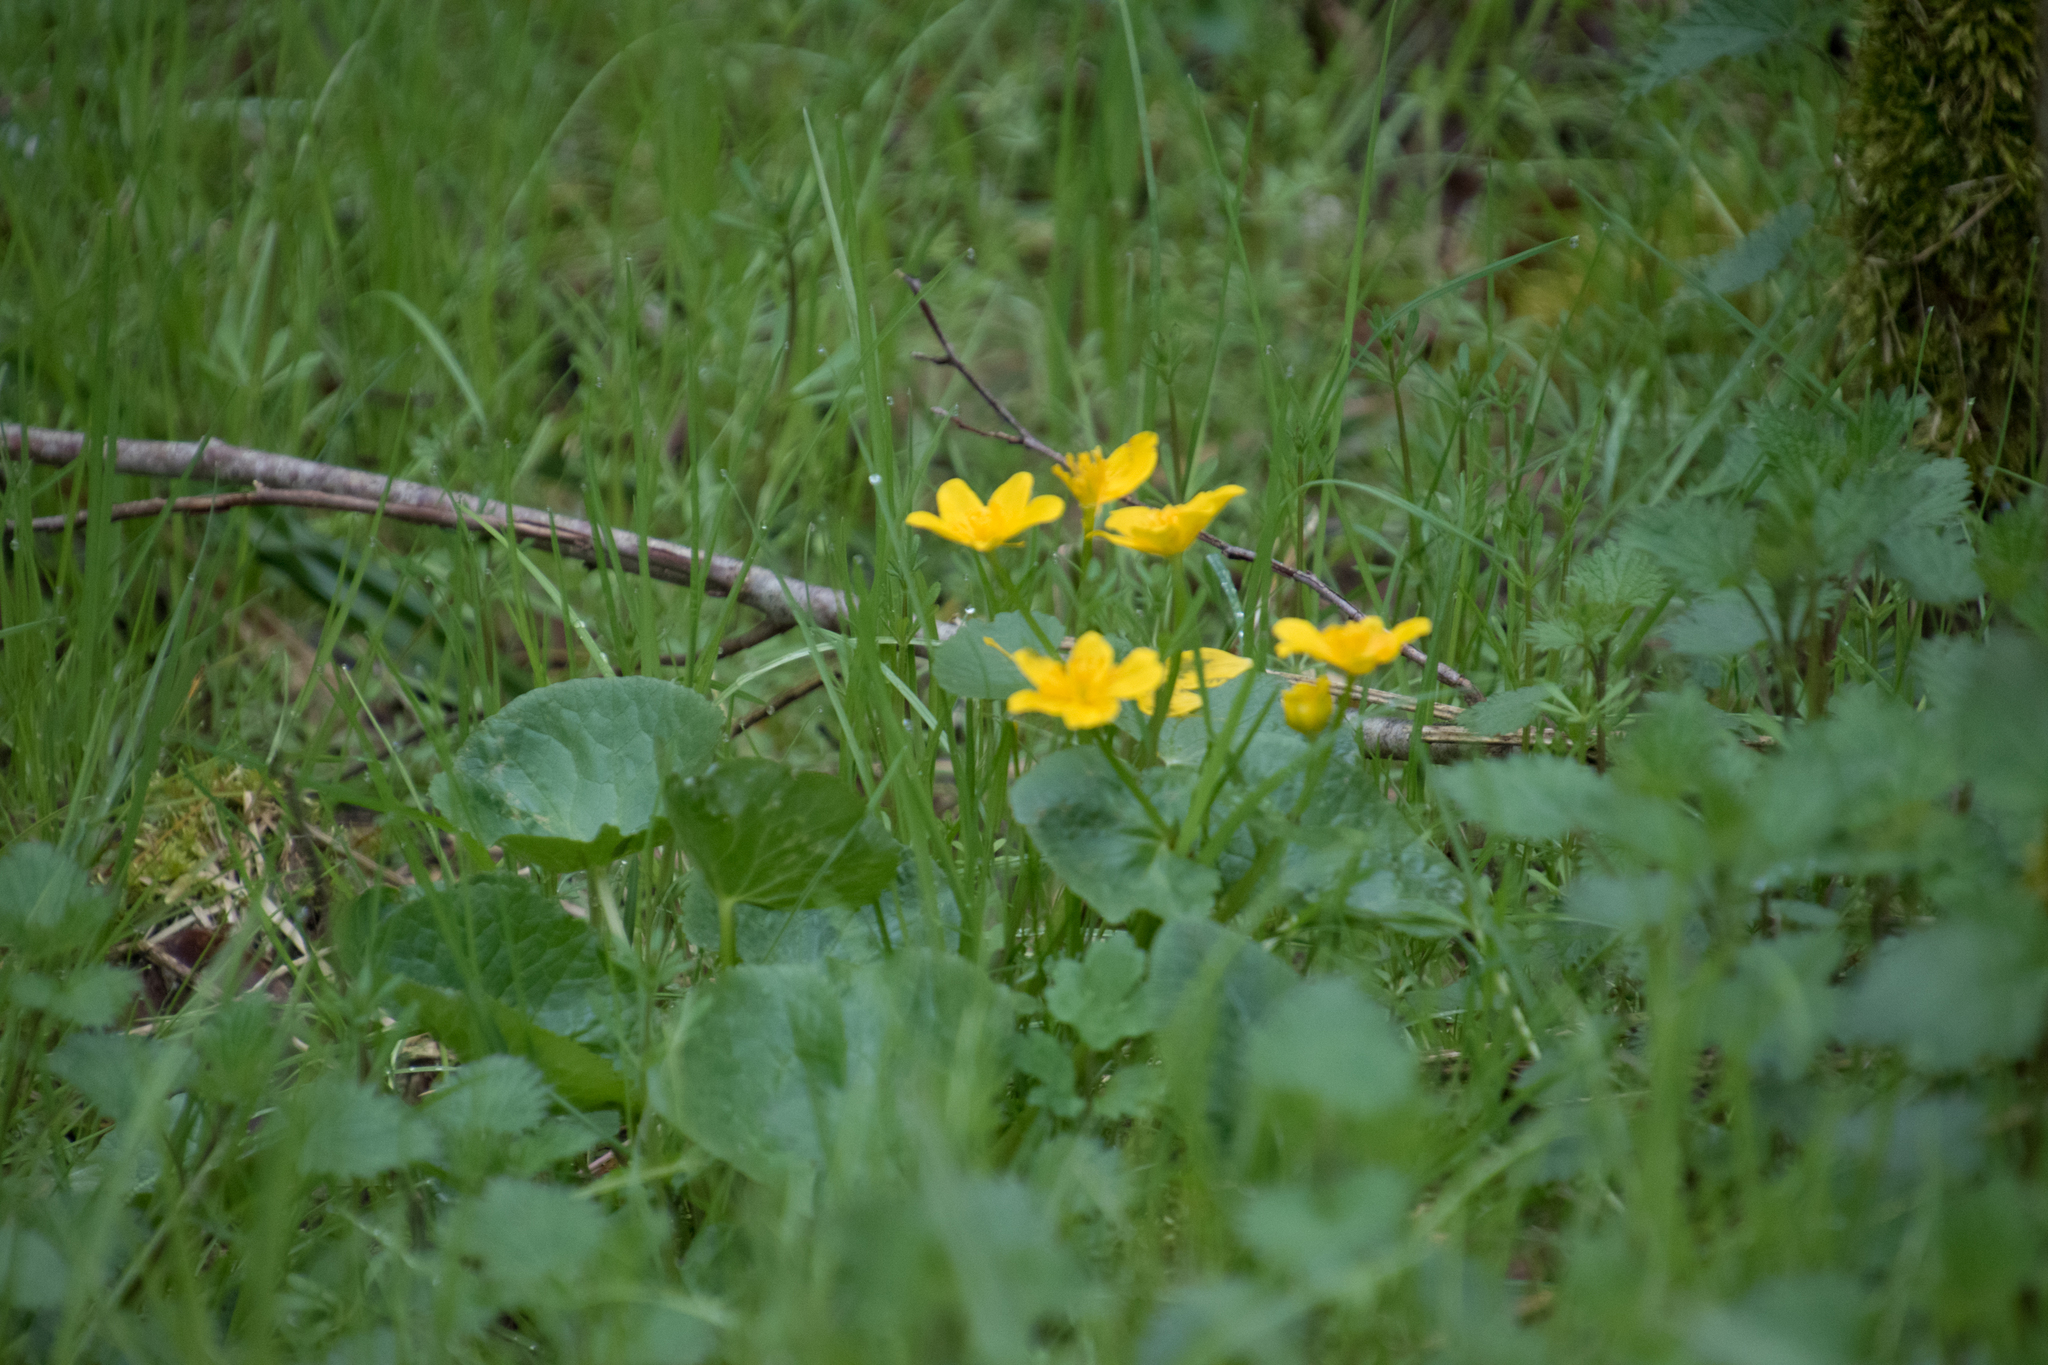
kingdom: Plantae
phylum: Tracheophyta
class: Magnoliopsida
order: Ranunculales
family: Ranunculaceae
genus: Caltha
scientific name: Caltha palustris
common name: Marsh marigold
